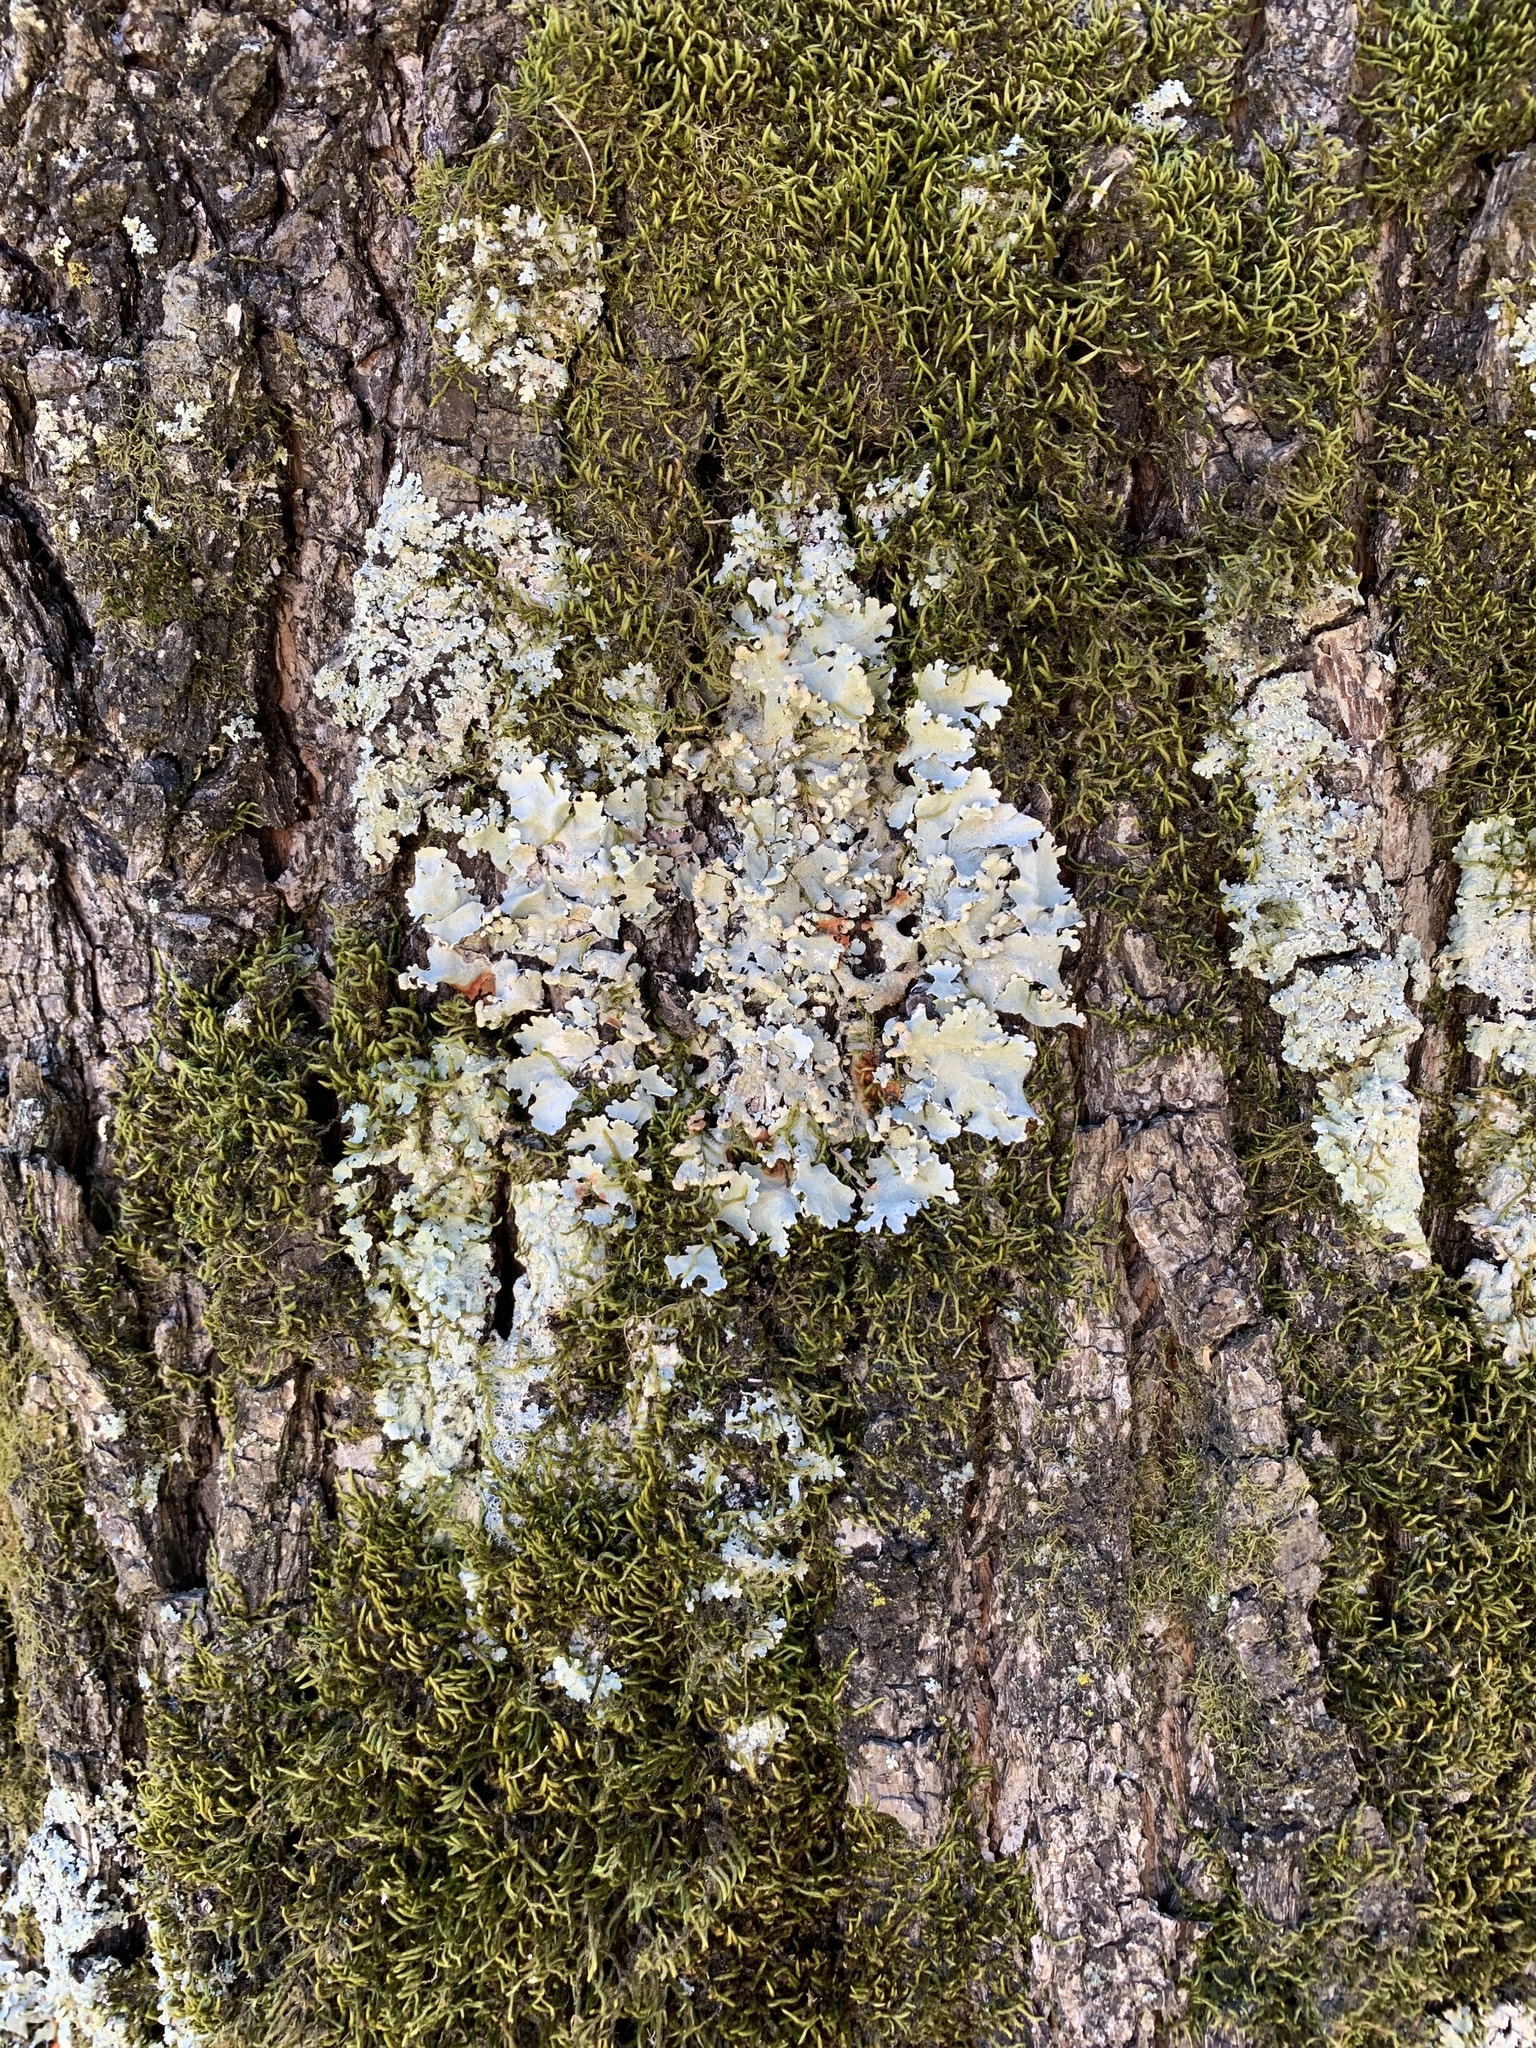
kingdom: Fungi
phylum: Ascomycota
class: Lecanoromycetes
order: Lecanorales
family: Parmeliaceae
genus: Parmotrema
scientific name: Parmotrema reticulatum
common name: Black sheet lichen
